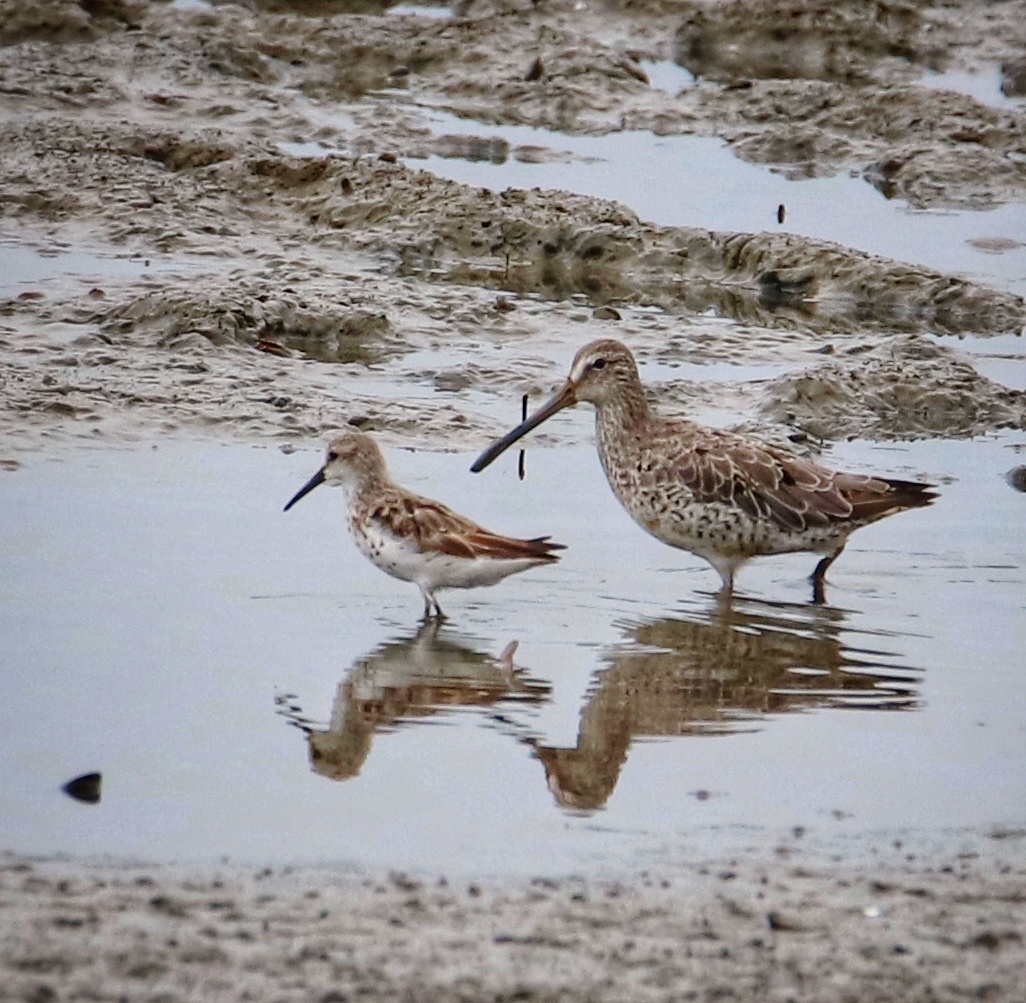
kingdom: Animalia
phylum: Chordata
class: Aves
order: Charadriiformes
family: Scolopacidae
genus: Limnodromus
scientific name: Limnodromus griseus
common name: Short-billed dowitcher
